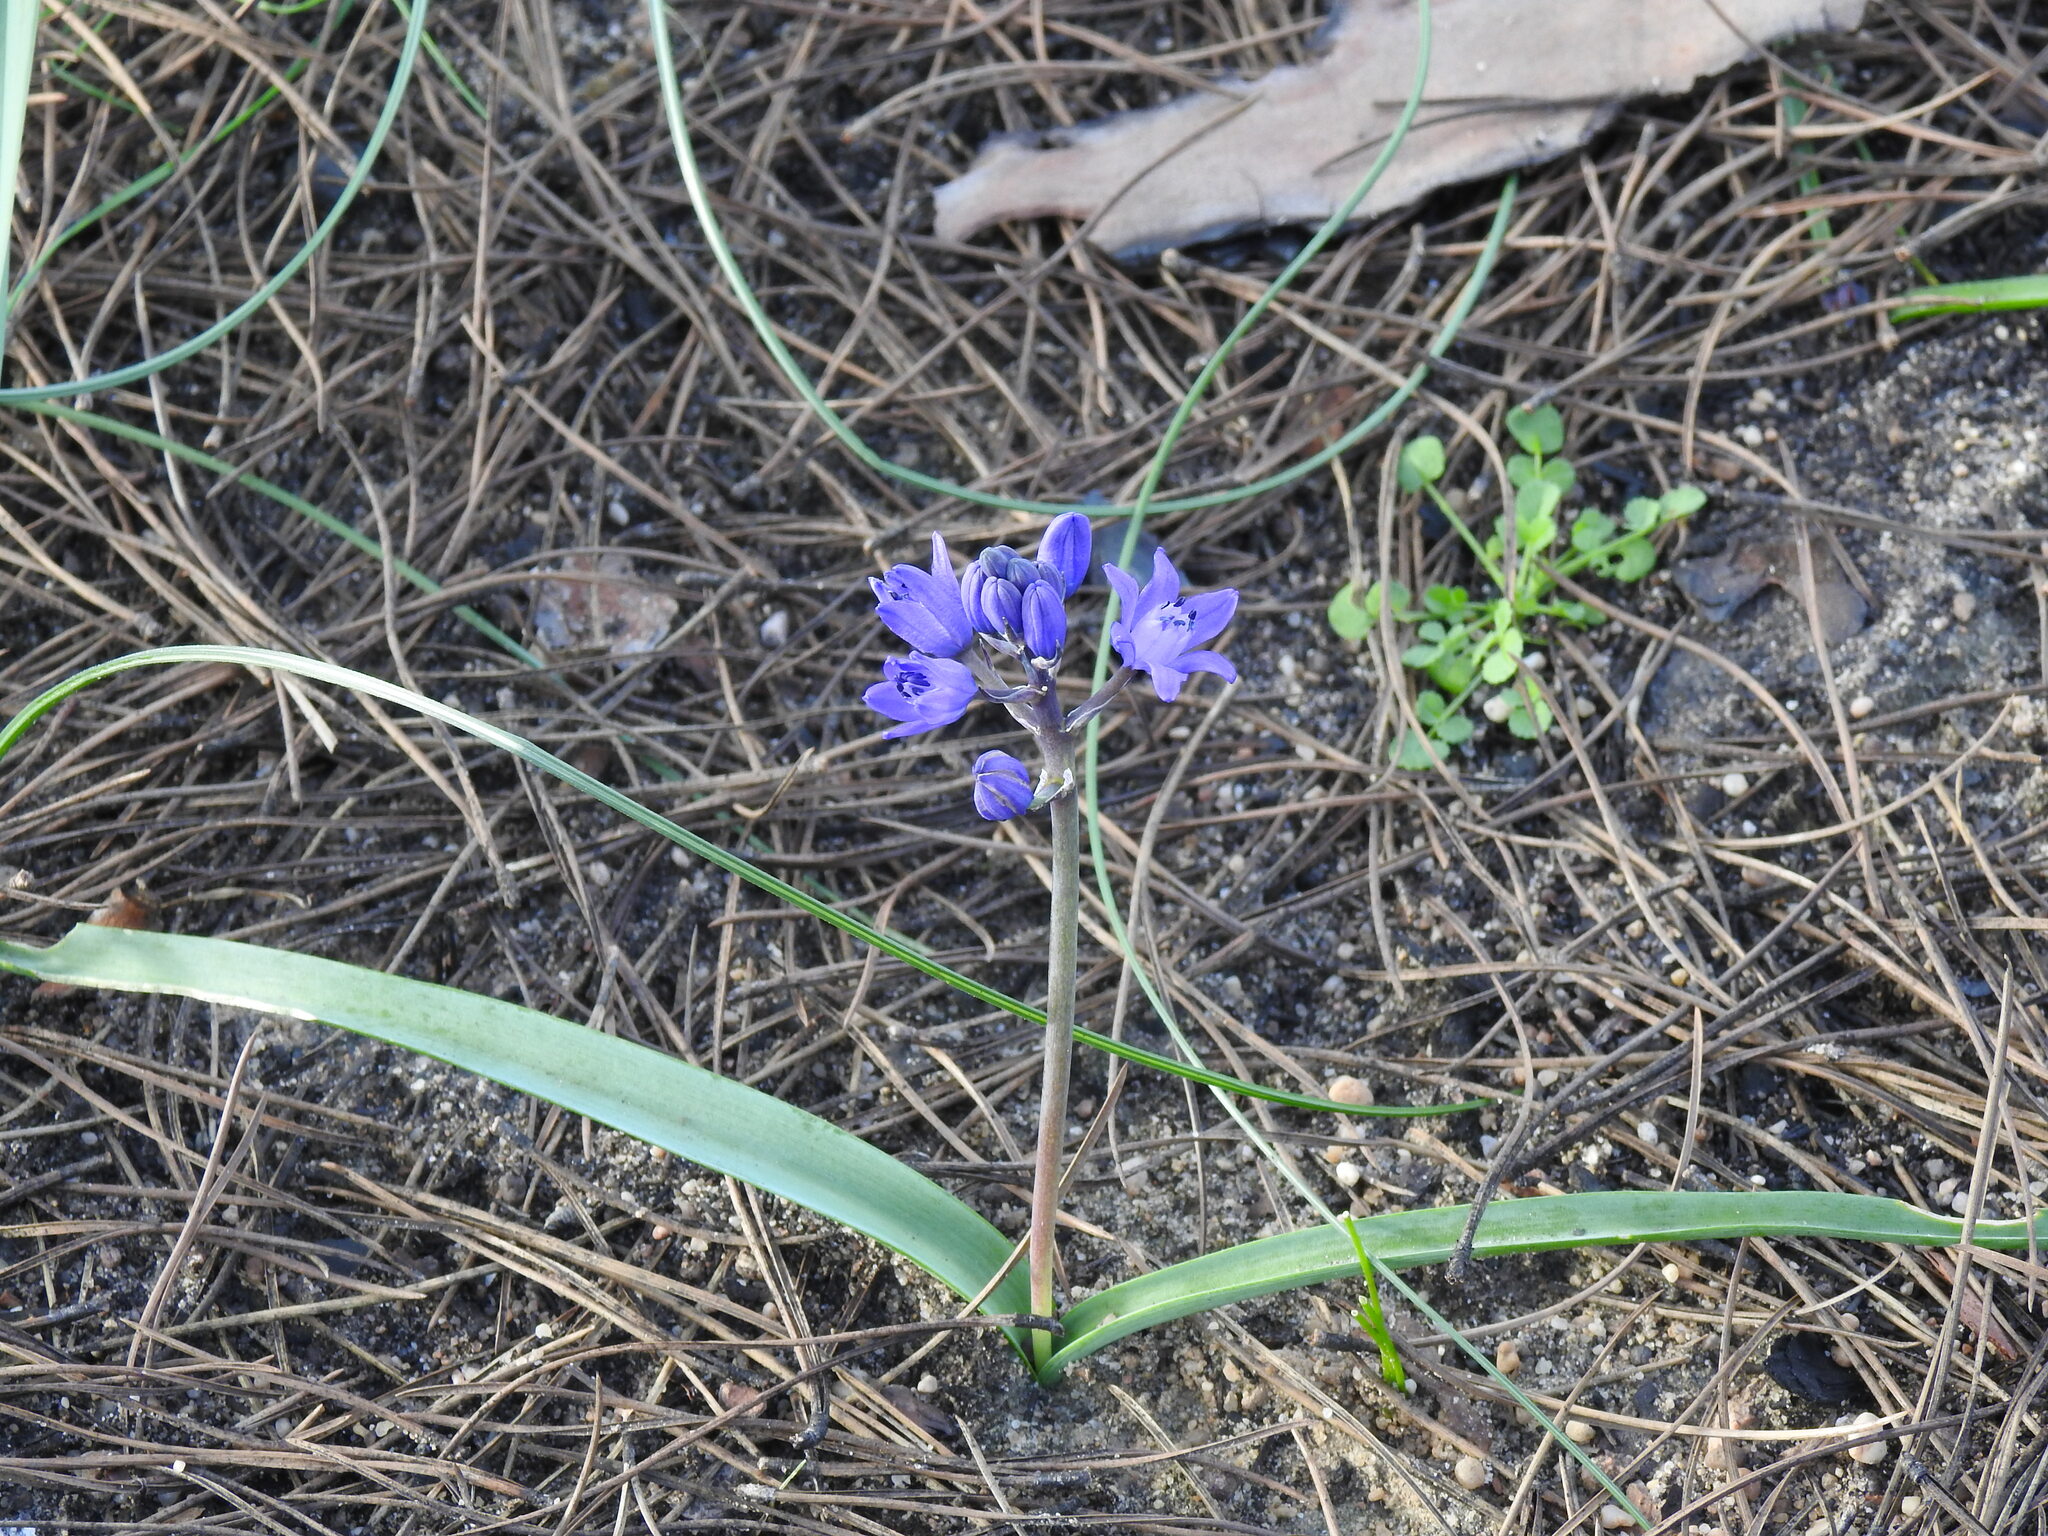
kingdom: Plantae
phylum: Tracheophyta
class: Liliopsida
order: Asparagales
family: Asparagaceae
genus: Scilla
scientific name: Scilla verna
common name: Spring squill
